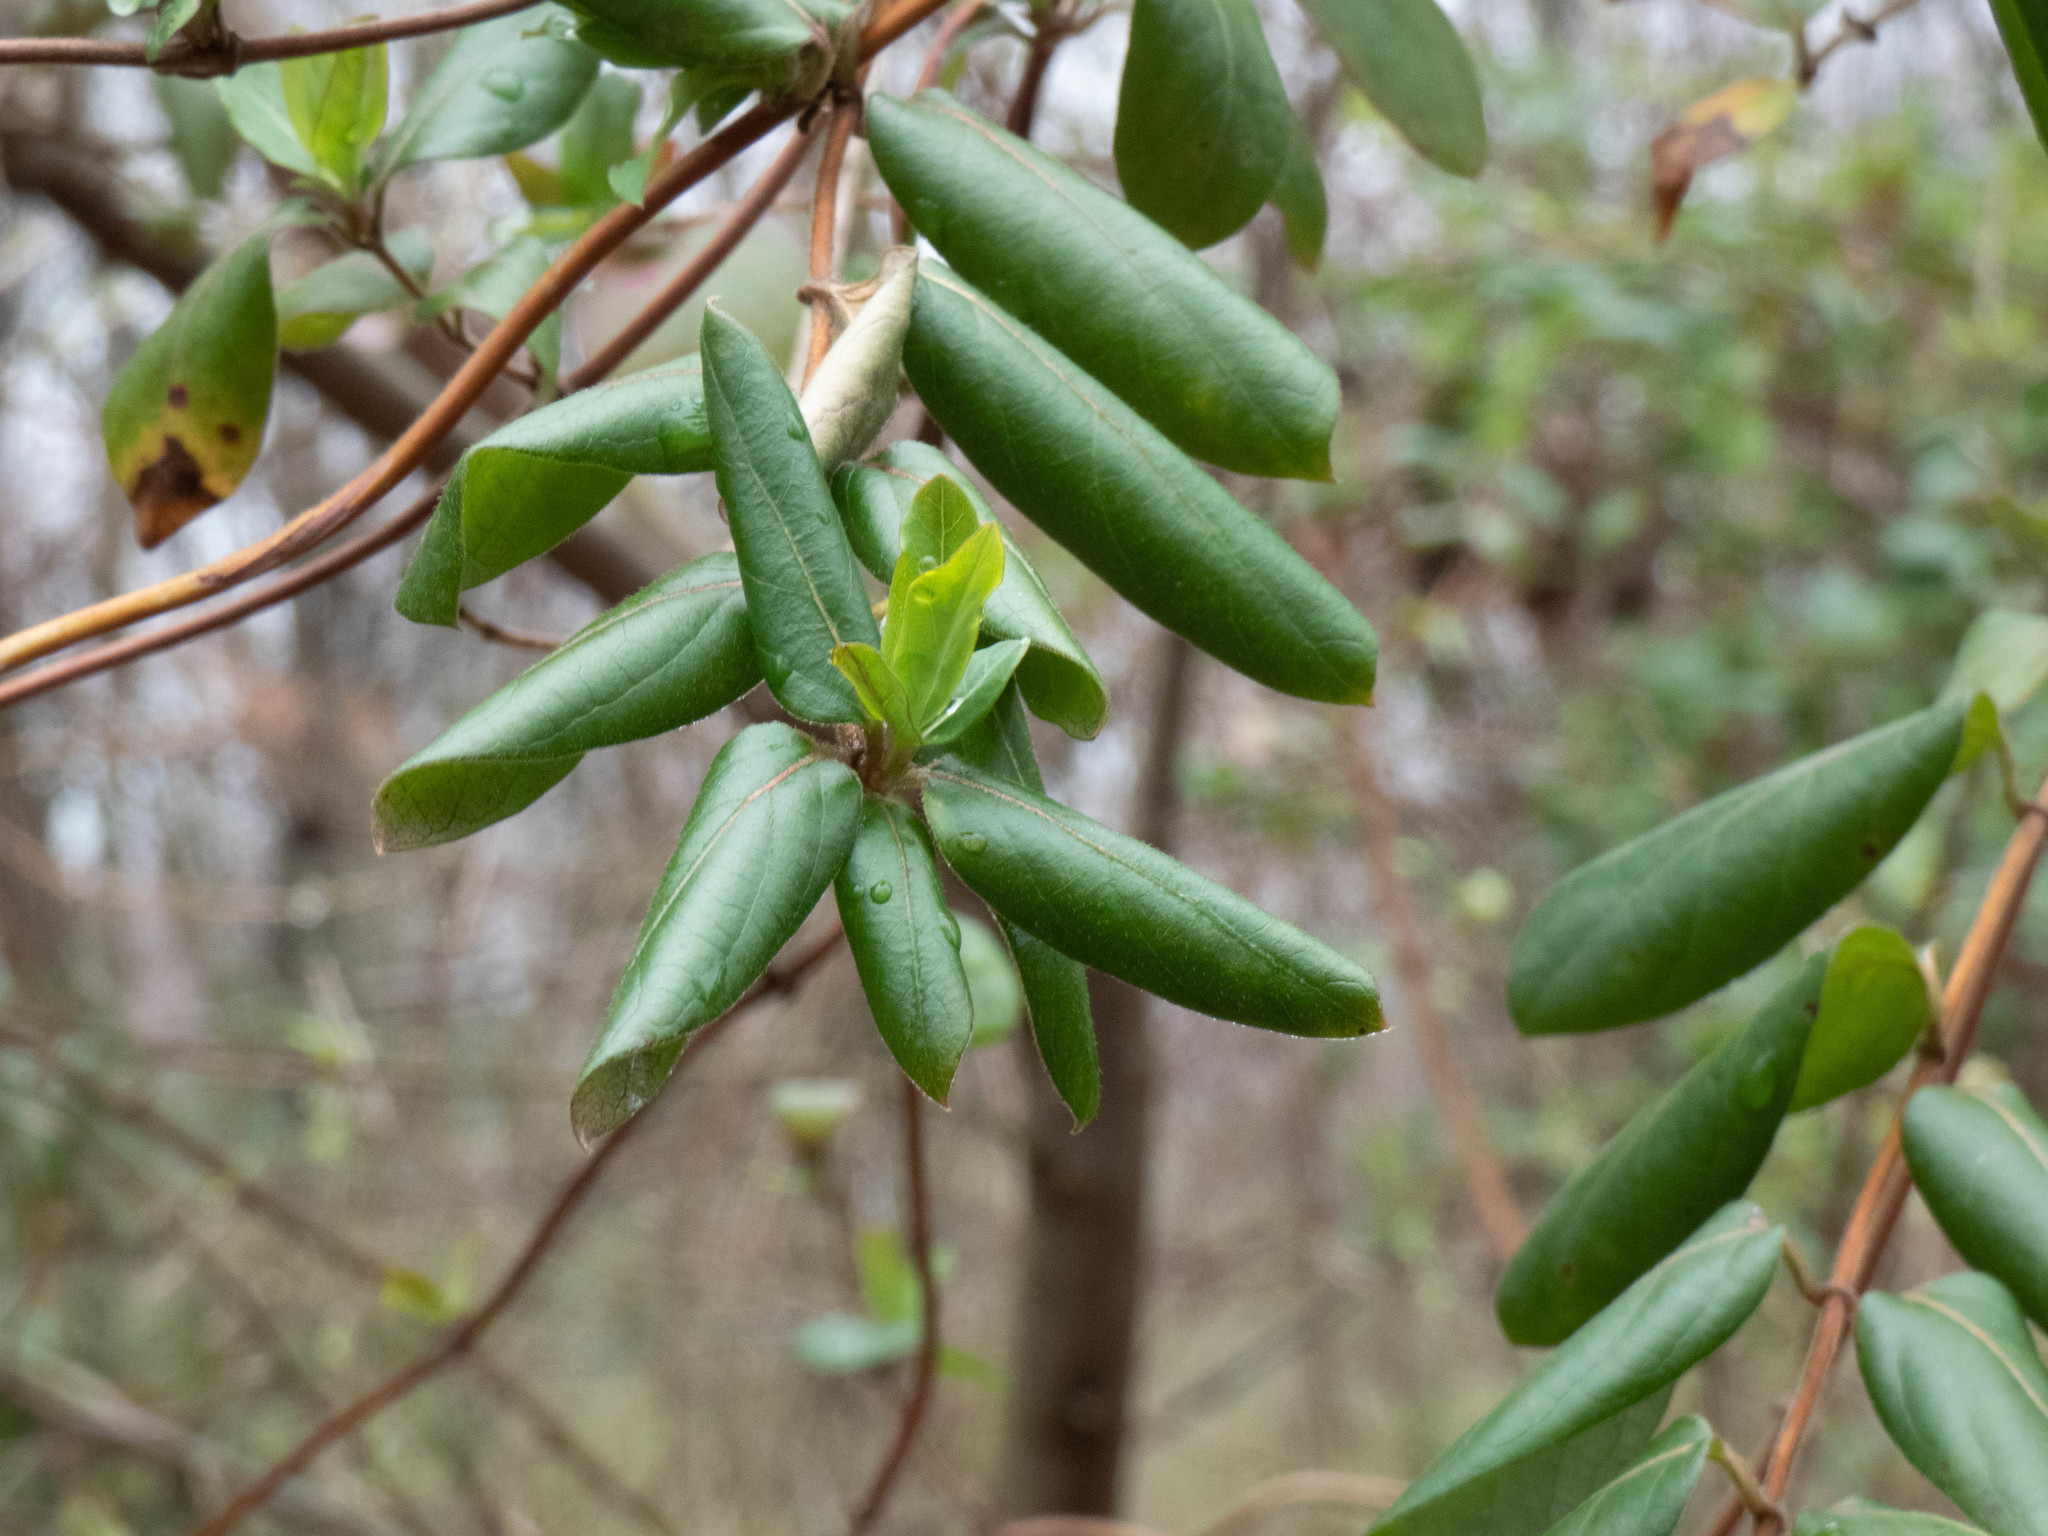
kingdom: Plantae
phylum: Tracheophyta
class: Magnoliopsida
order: Dipsacales
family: Caprifoliaceae
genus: Lonicera
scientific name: Lonicera japonica
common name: Japanese honeysuckle
